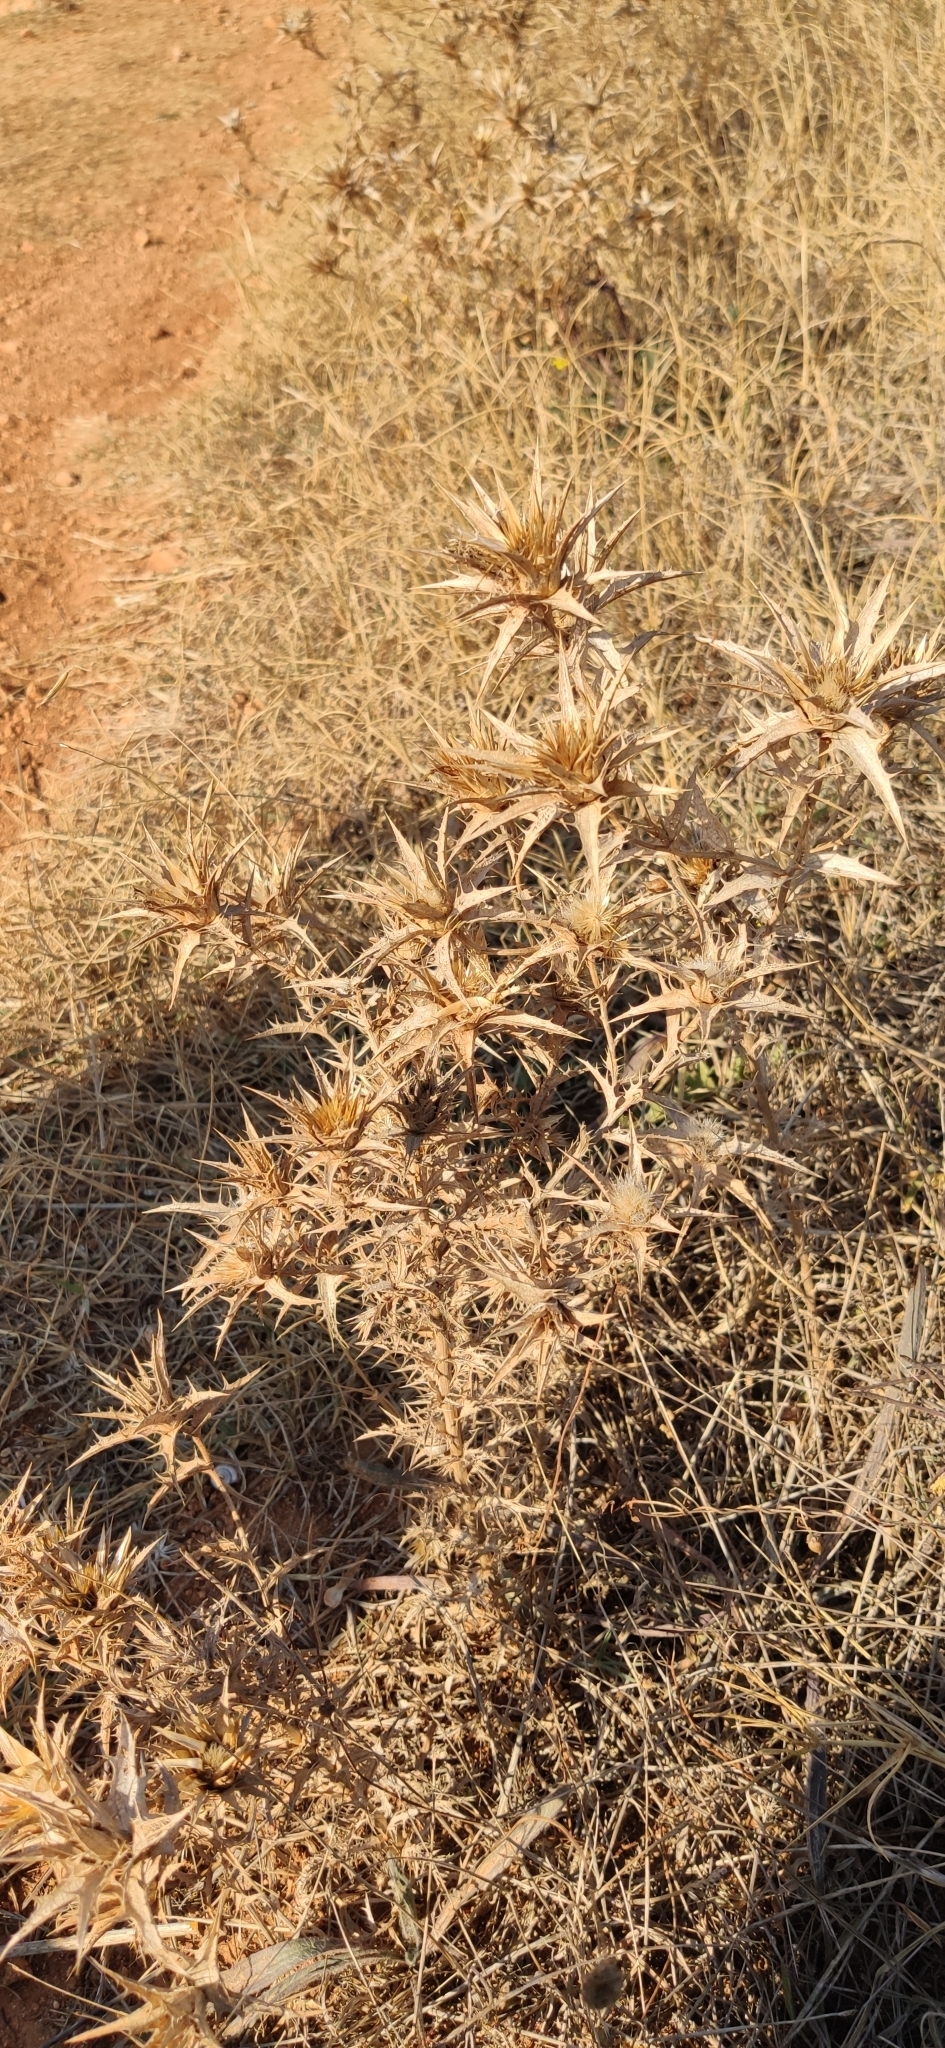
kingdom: Plantae
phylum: Tracheophyta
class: Magnoliopsida
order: Asterales
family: Asteraceae
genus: Carthamus
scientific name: Carthamus lanatus
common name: Downy safflower
